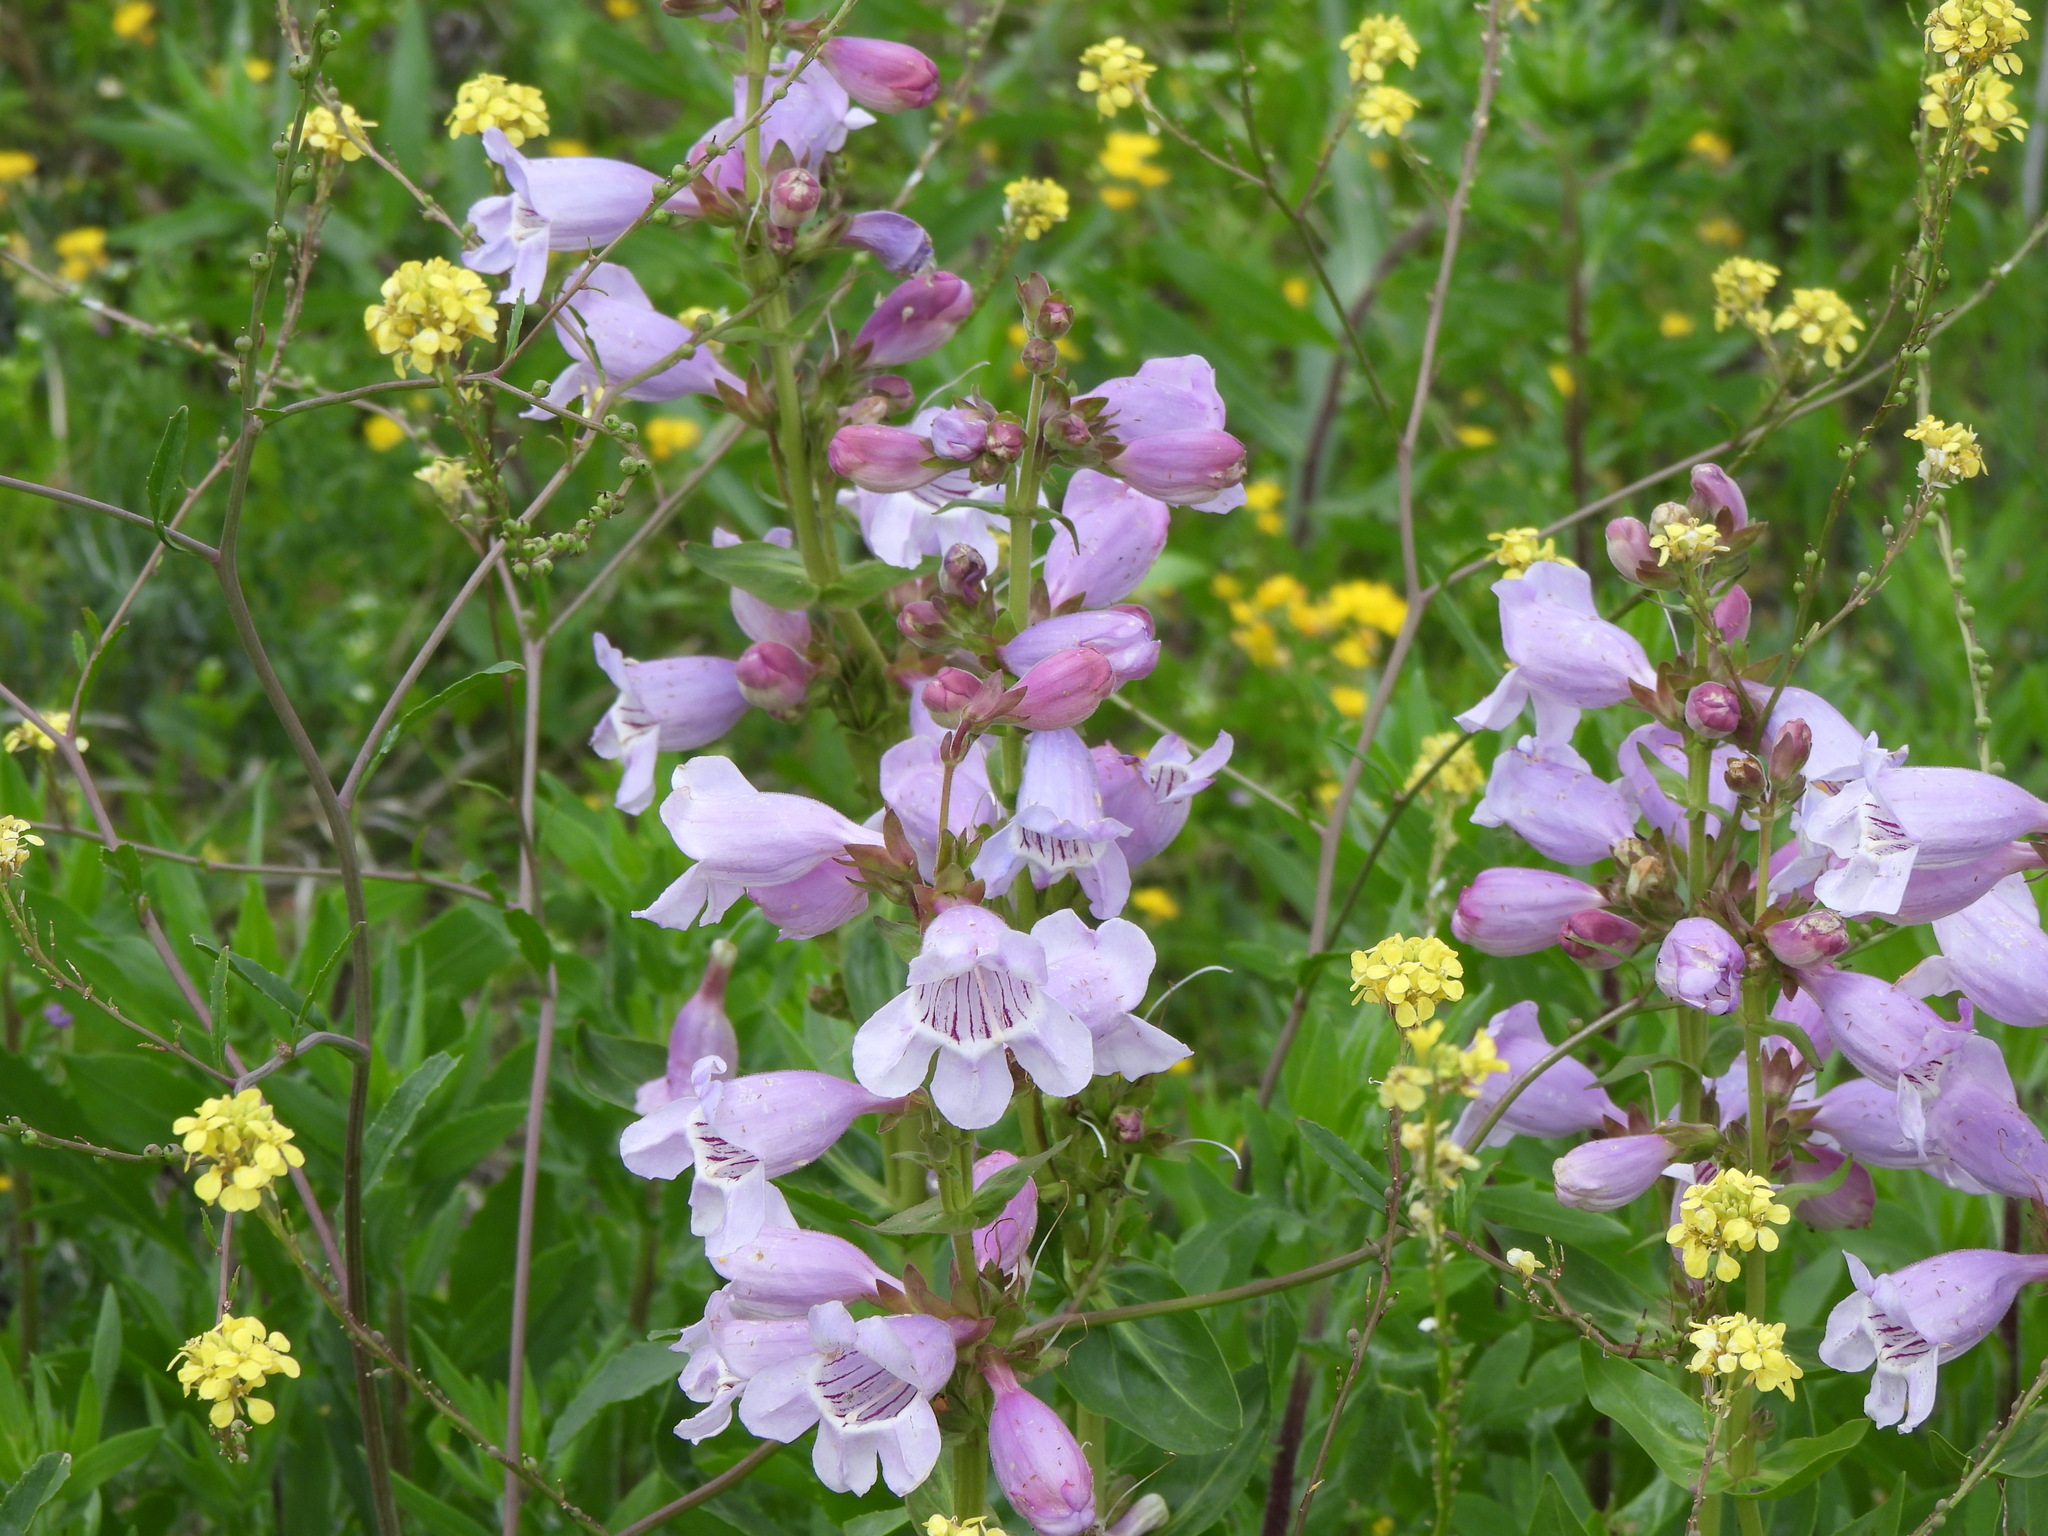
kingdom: Plantae
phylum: Tracheophyta
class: Magnoliopsida
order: Lamiales
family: Plantaginaceae
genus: Penstemon
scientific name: Penstemon cobaea
